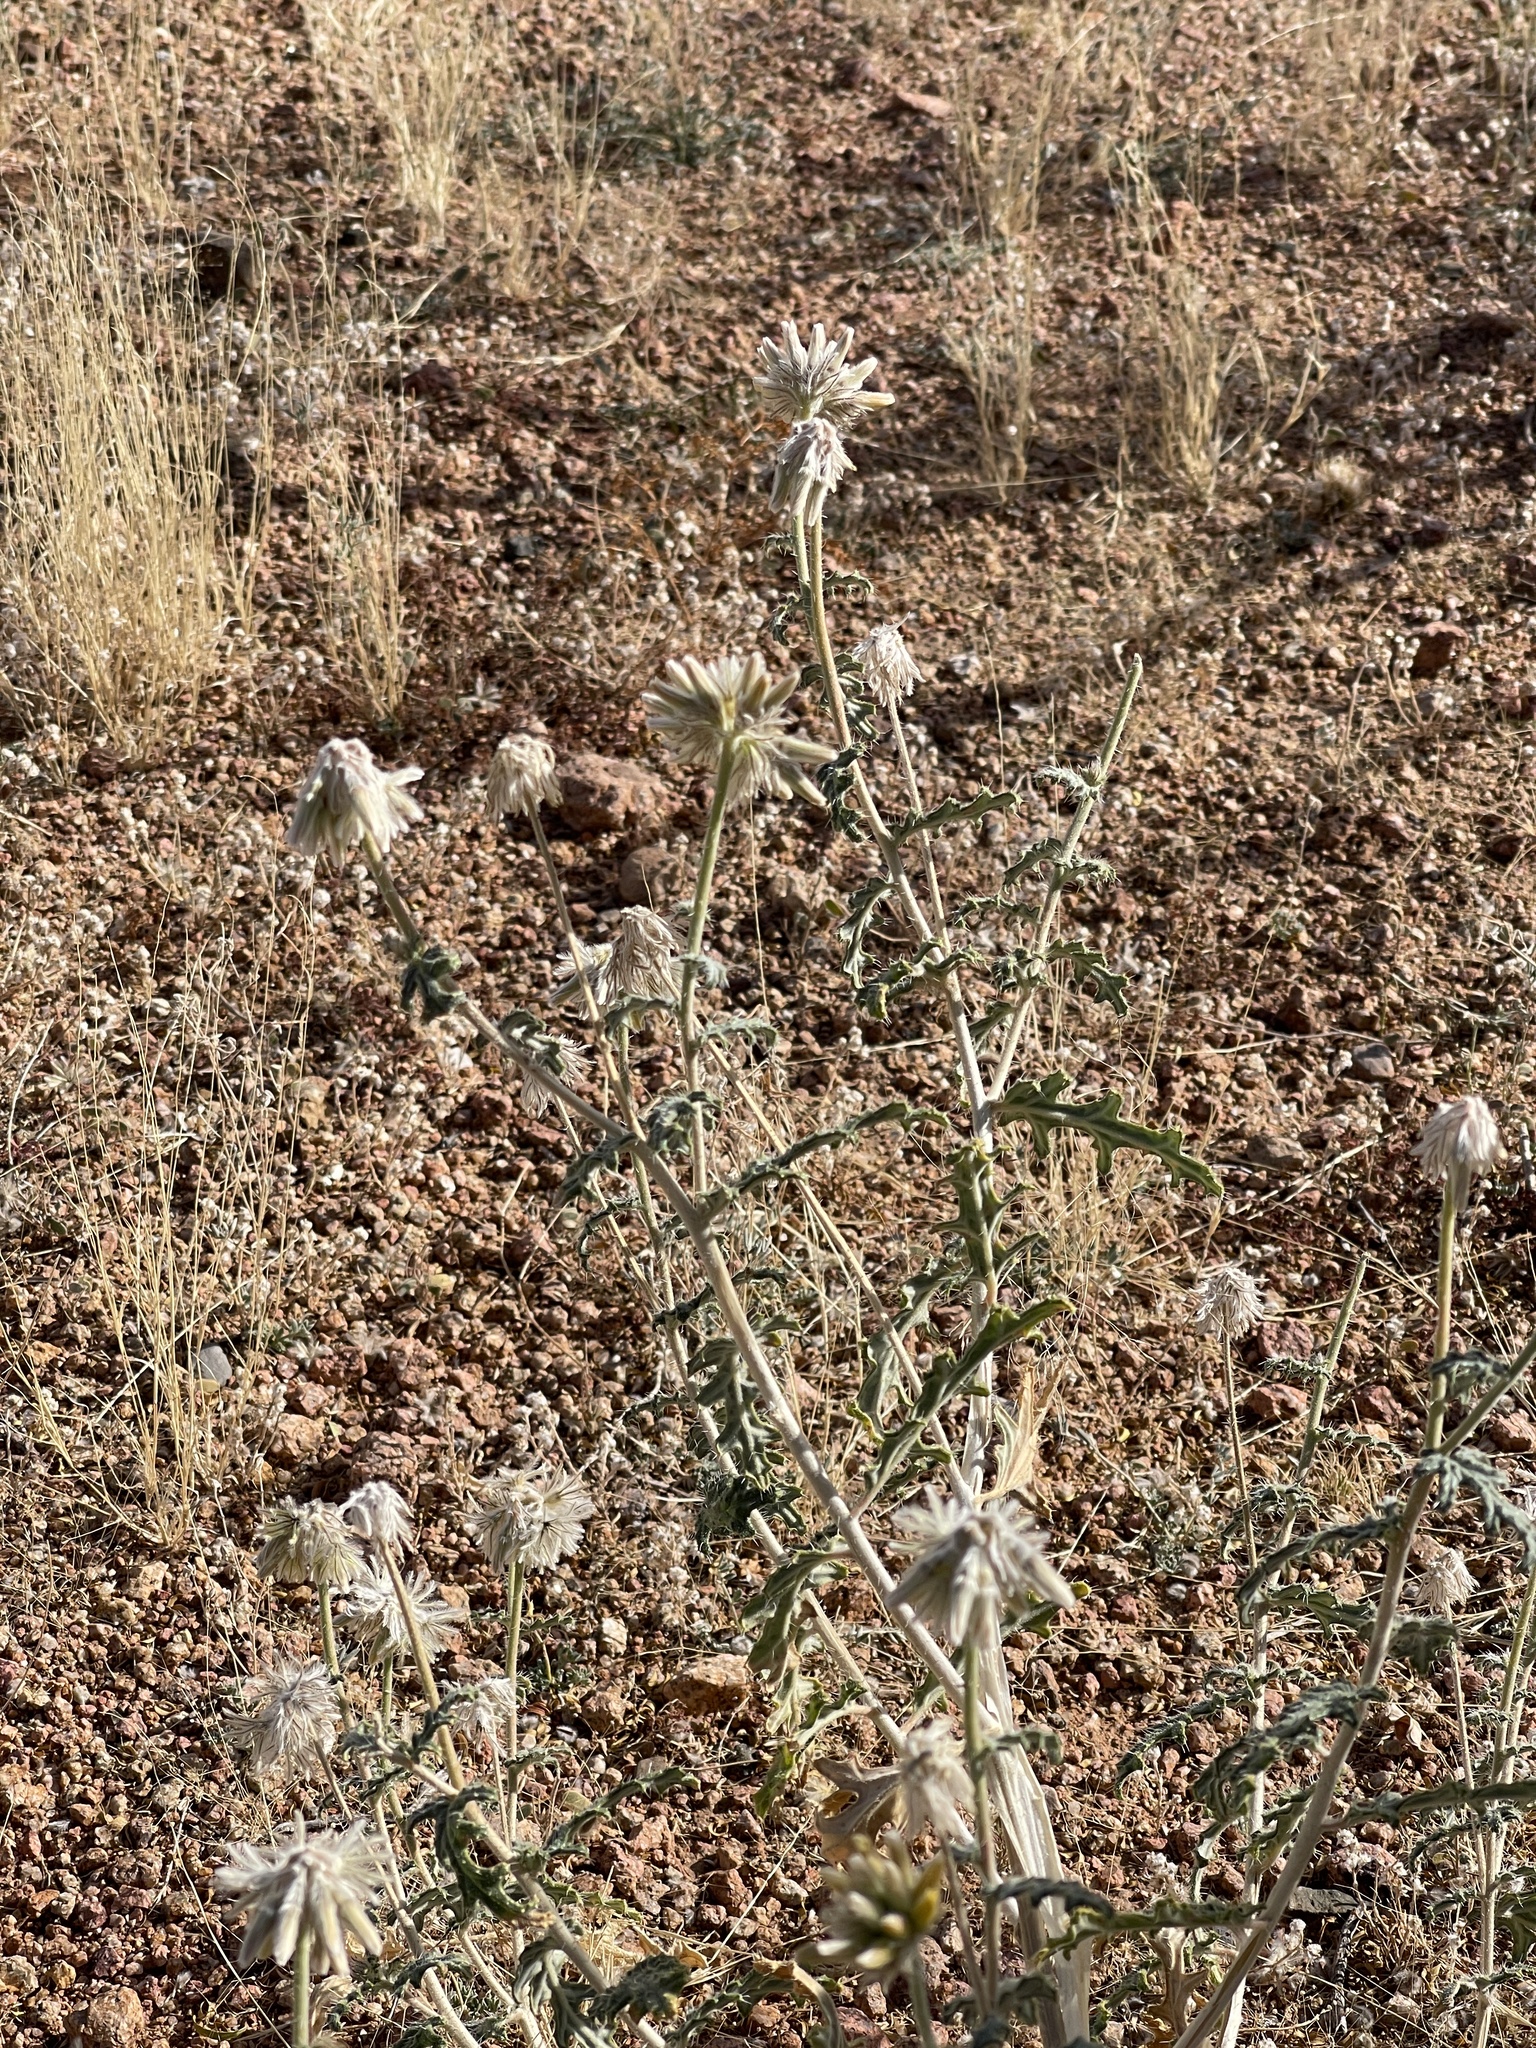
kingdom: Plantae
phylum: Tracheophyta
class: Magnoliopsida
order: Cornales
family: Loasaceae
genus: Cevallia
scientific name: Cevallia sinuata
